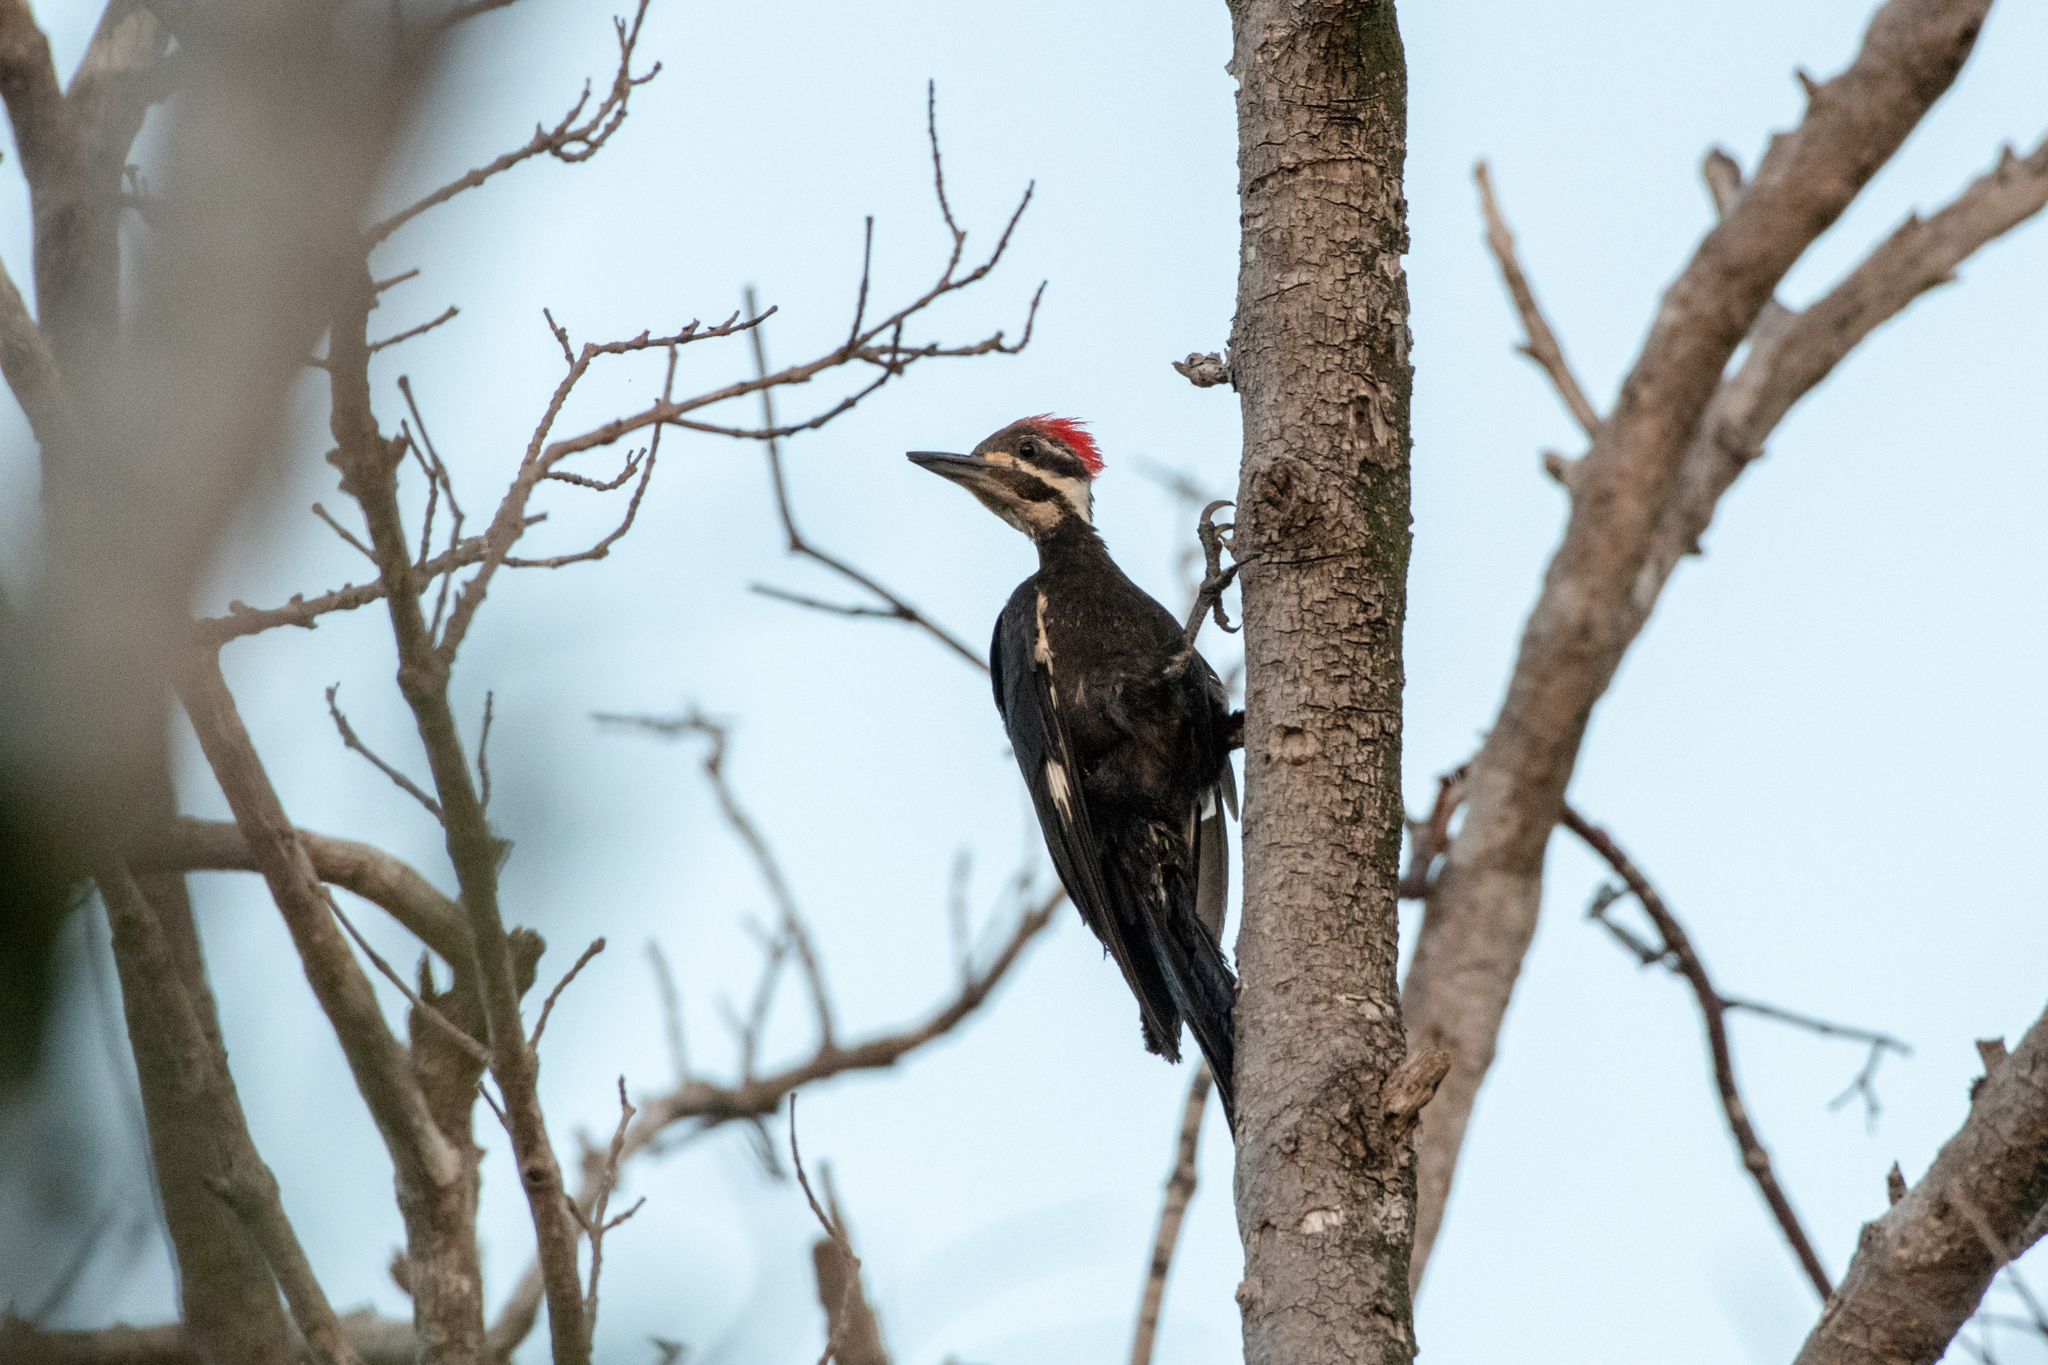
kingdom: Animalia
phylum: Chordata
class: Aves
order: Piciformes
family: Picidae
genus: Dryocopus
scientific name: Dryocopus pileatus
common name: Pileated woodpecker
